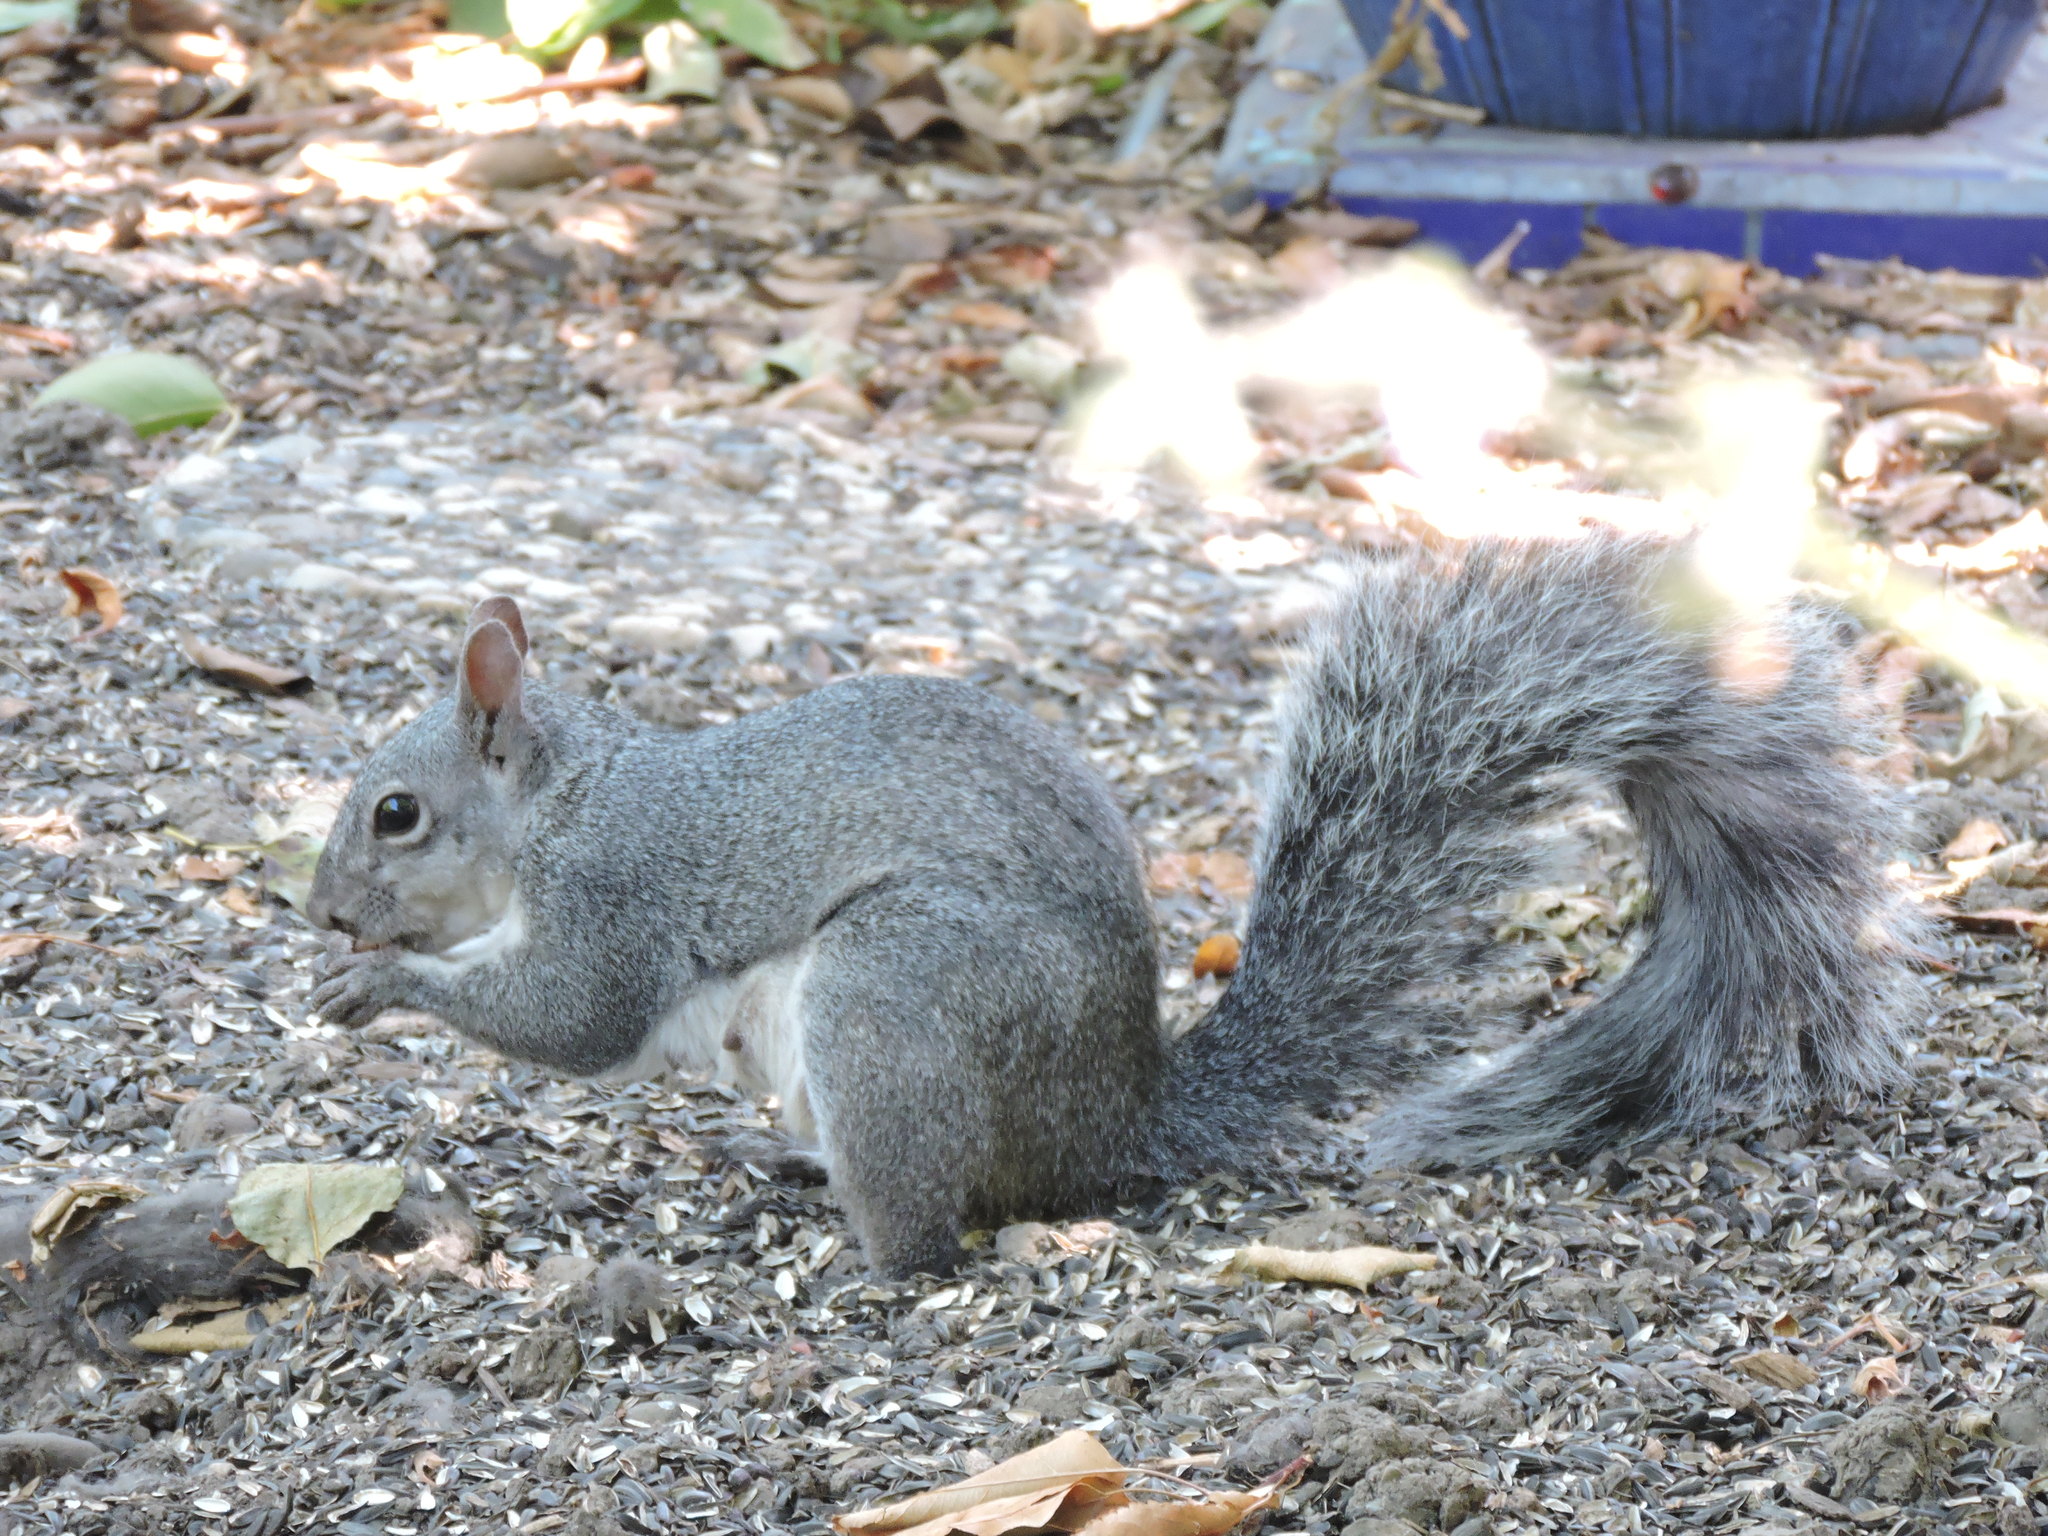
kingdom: Animalia
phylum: Chordata
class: Mammalia
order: Rodentia
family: Sciuridae
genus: Sciurus
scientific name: Sciurus griseus
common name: Western gray squirrel
